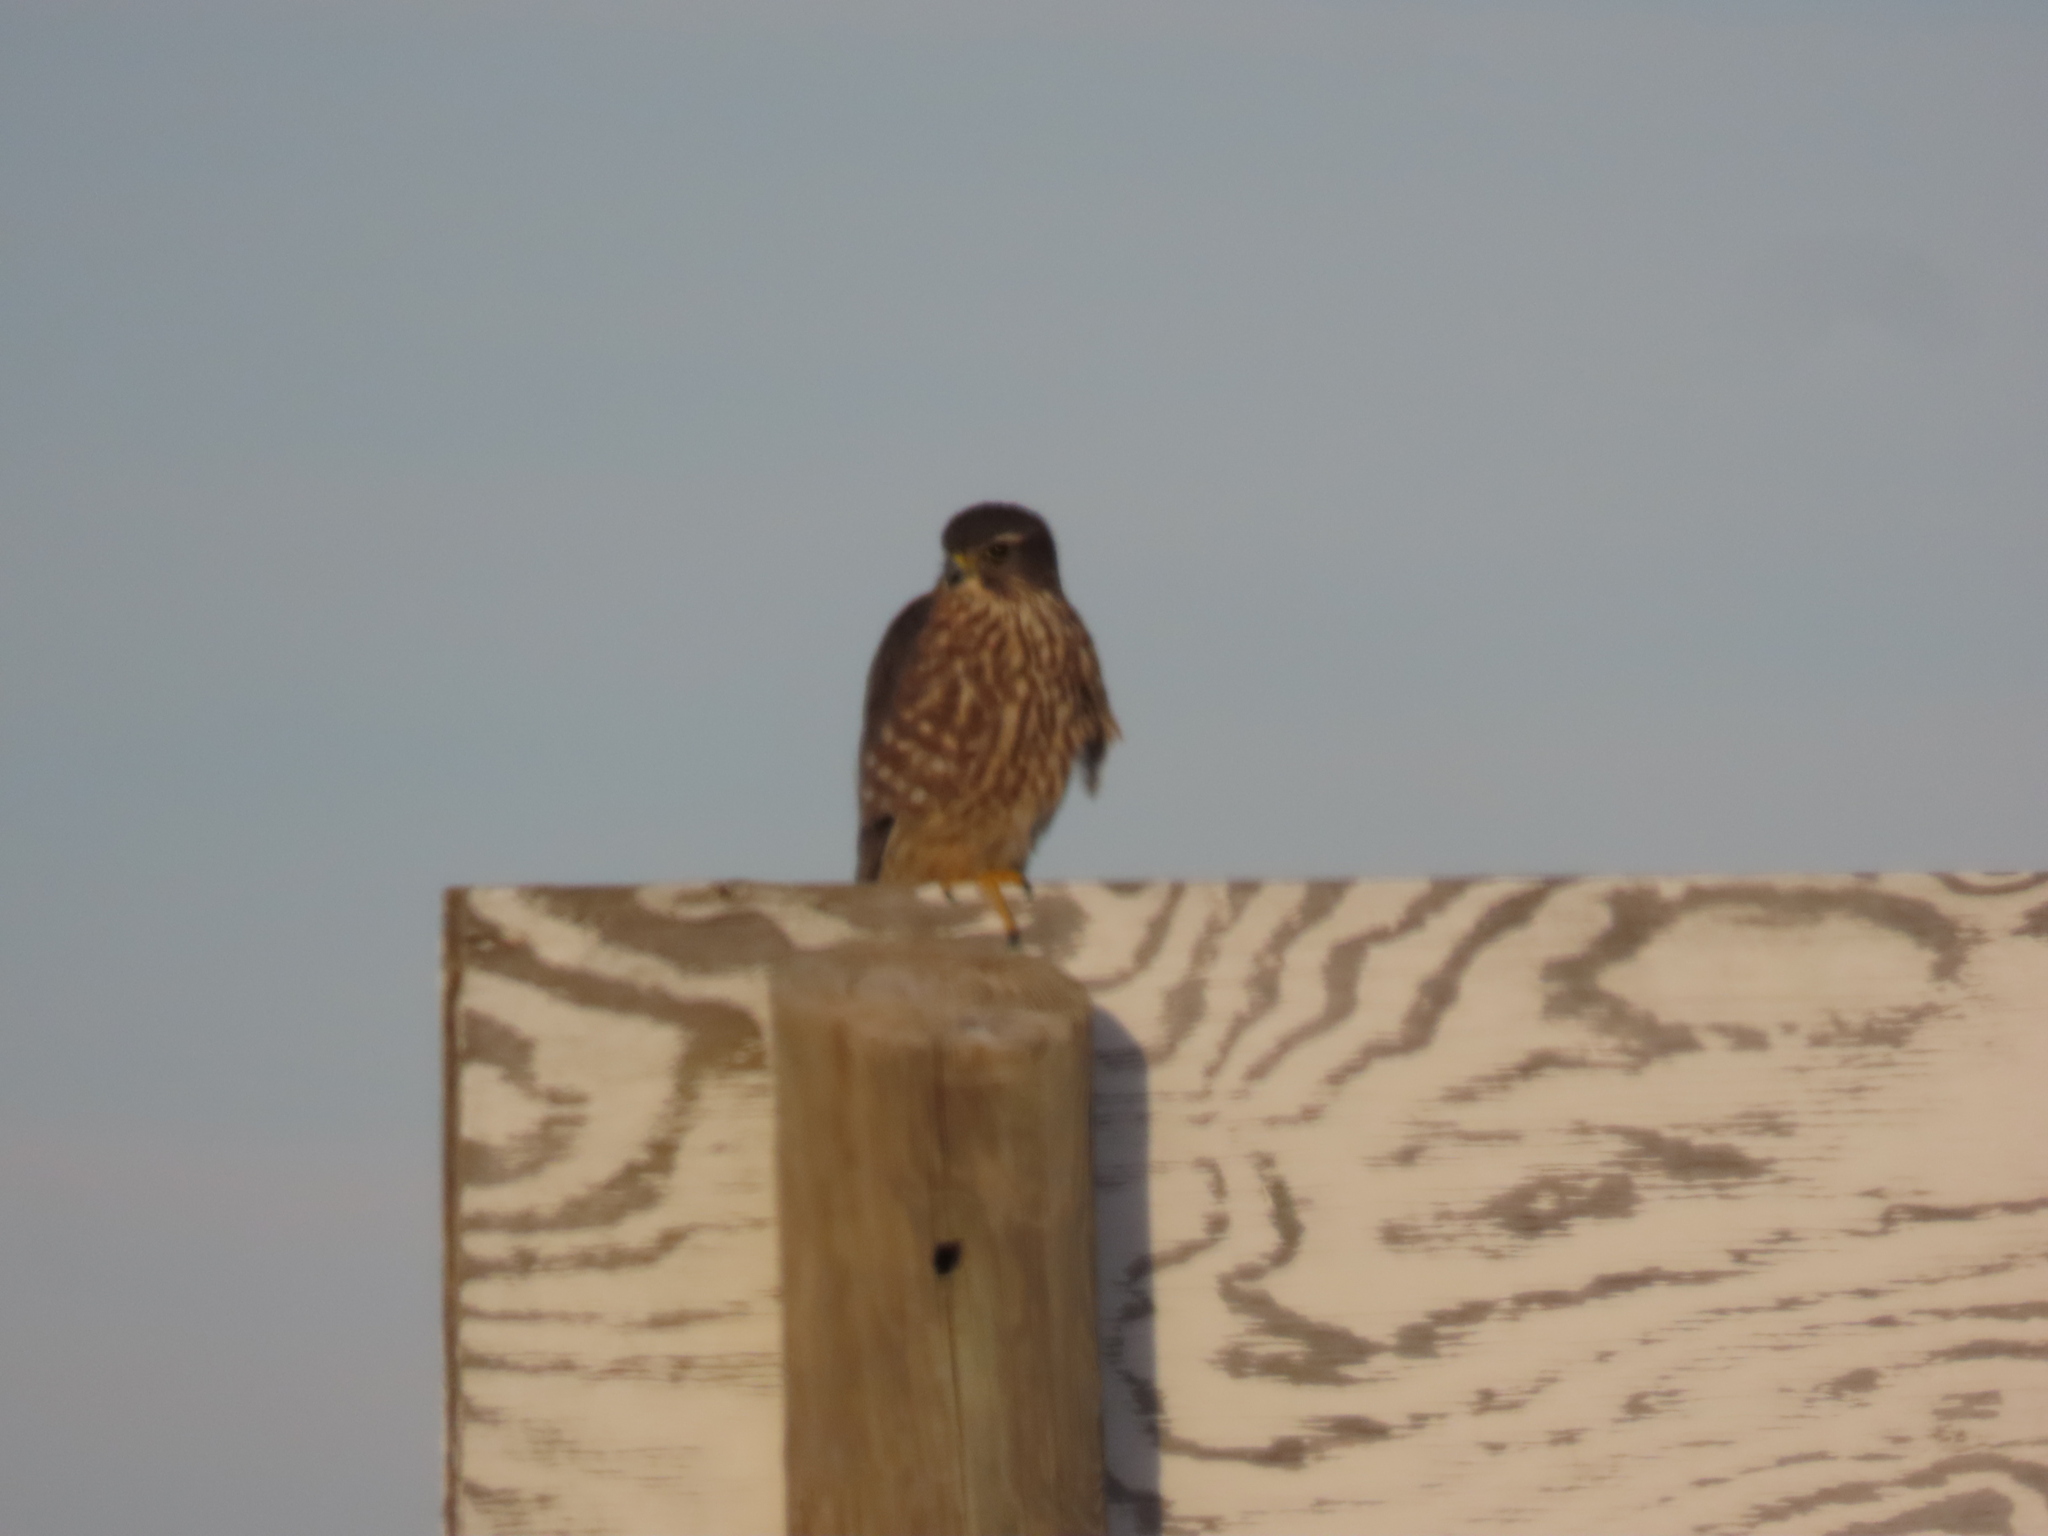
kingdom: Animalia
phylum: Chordata
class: Aves
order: Falconiformes
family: Falconidae
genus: Falco
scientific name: Falco columbarius
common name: Merlin
